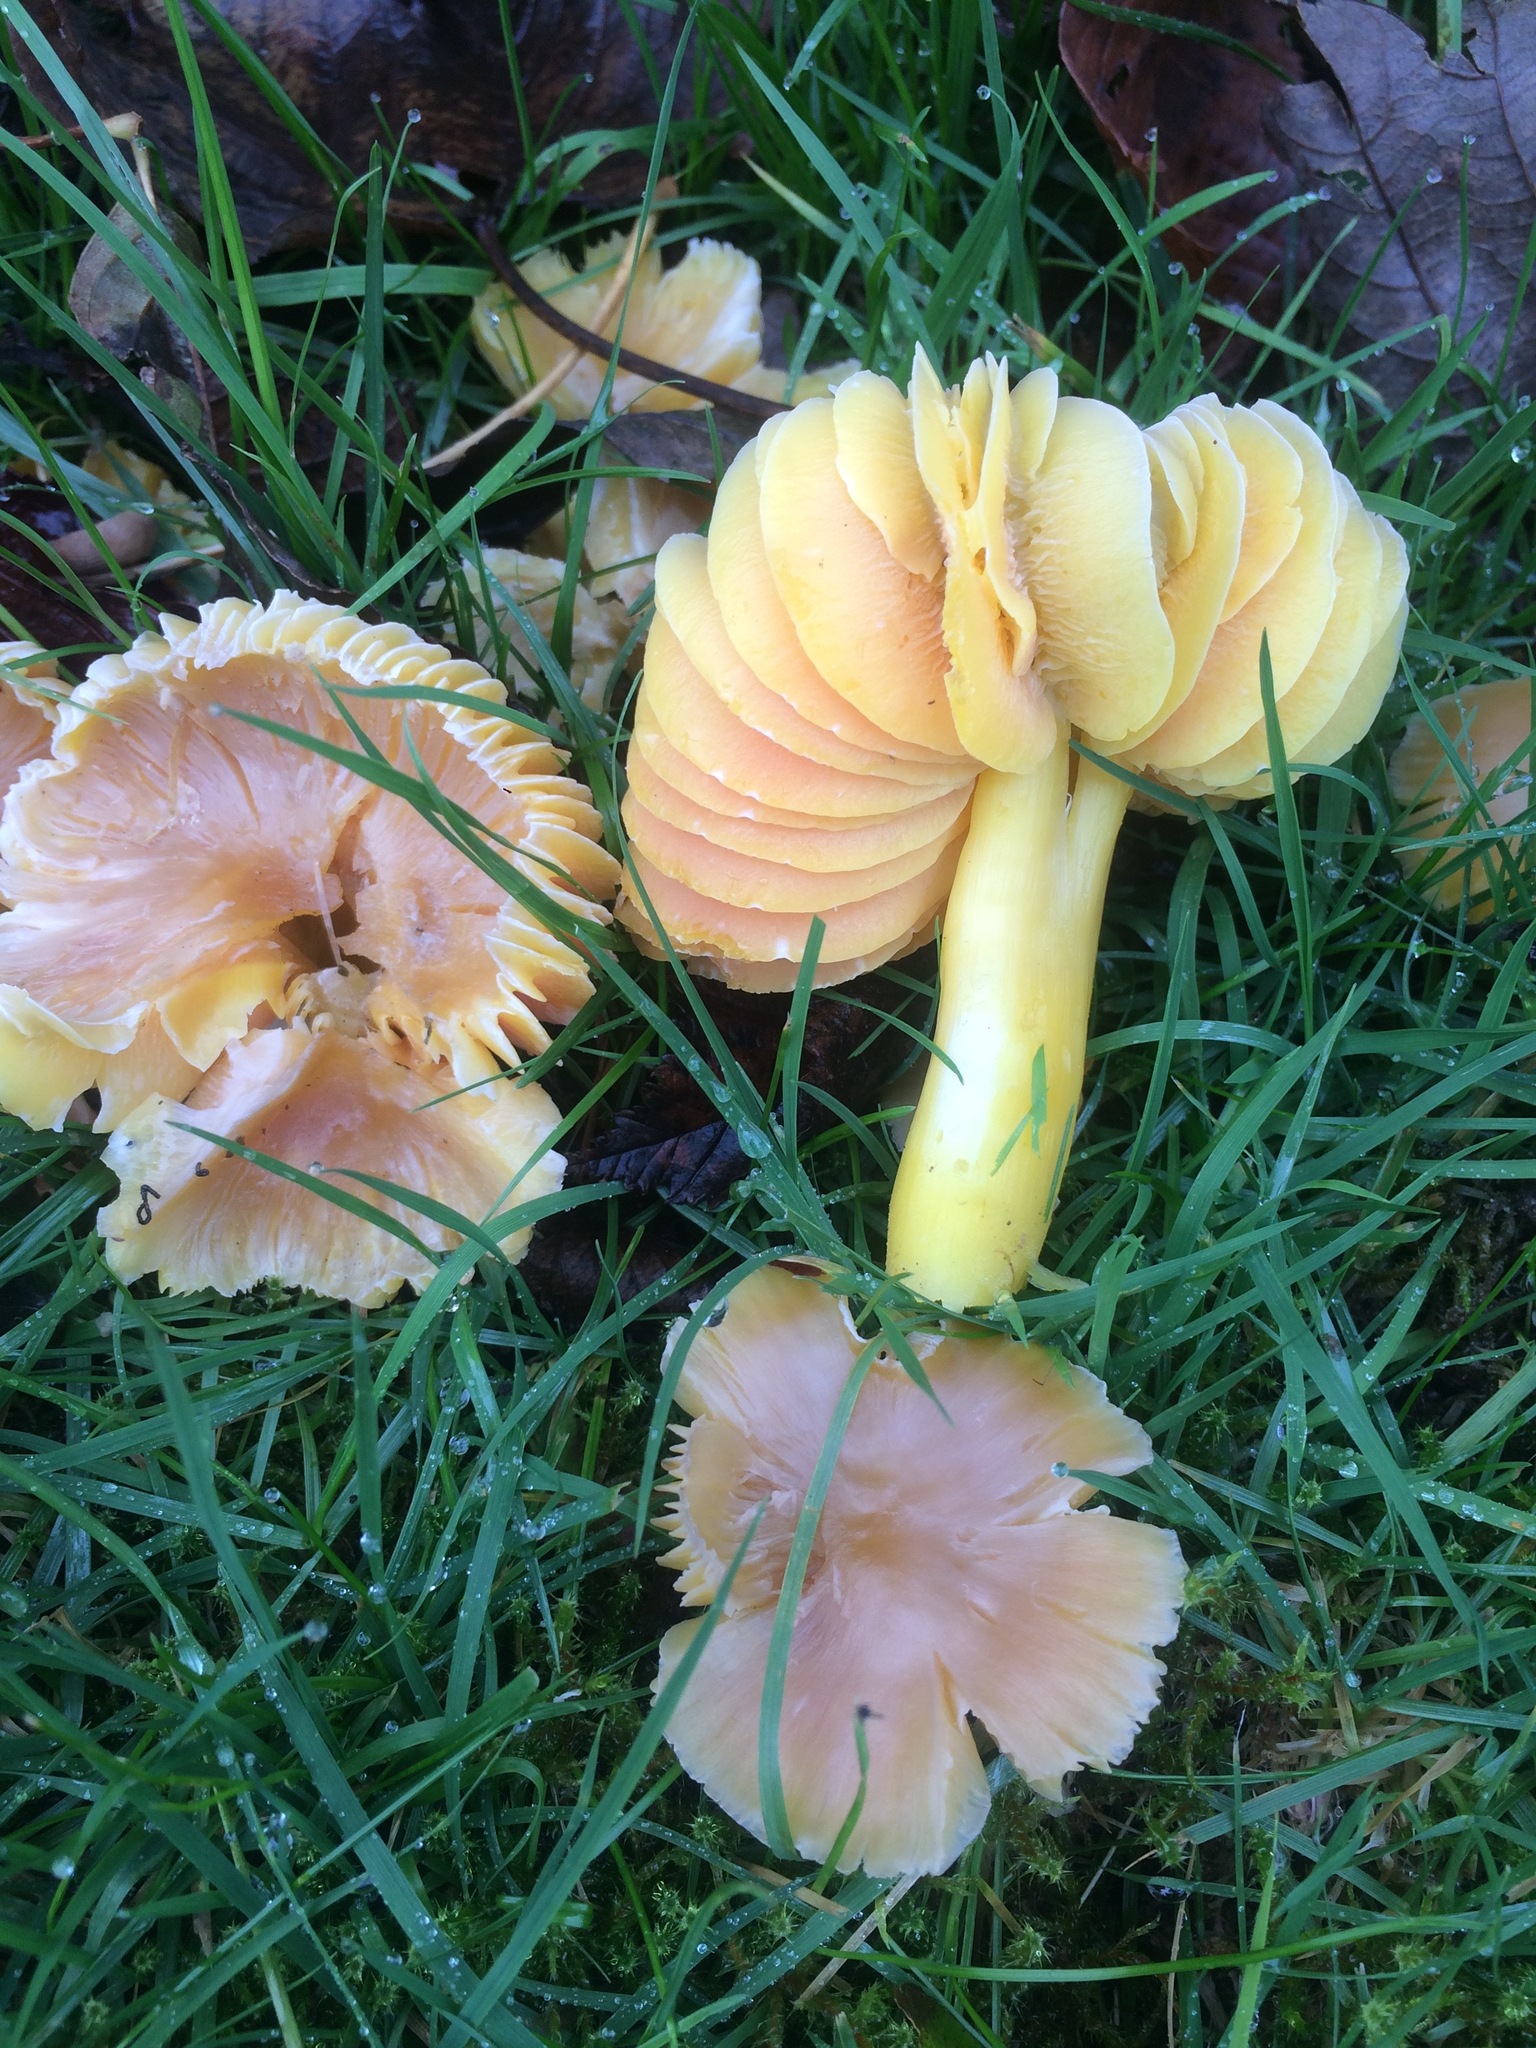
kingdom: Fungi
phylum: Basidiomycota
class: Agaricomycetes
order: Agaricales
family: Hygrophoraceae
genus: Hygrocybe
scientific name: Hygrocybe quieta
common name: Oily waxcap
